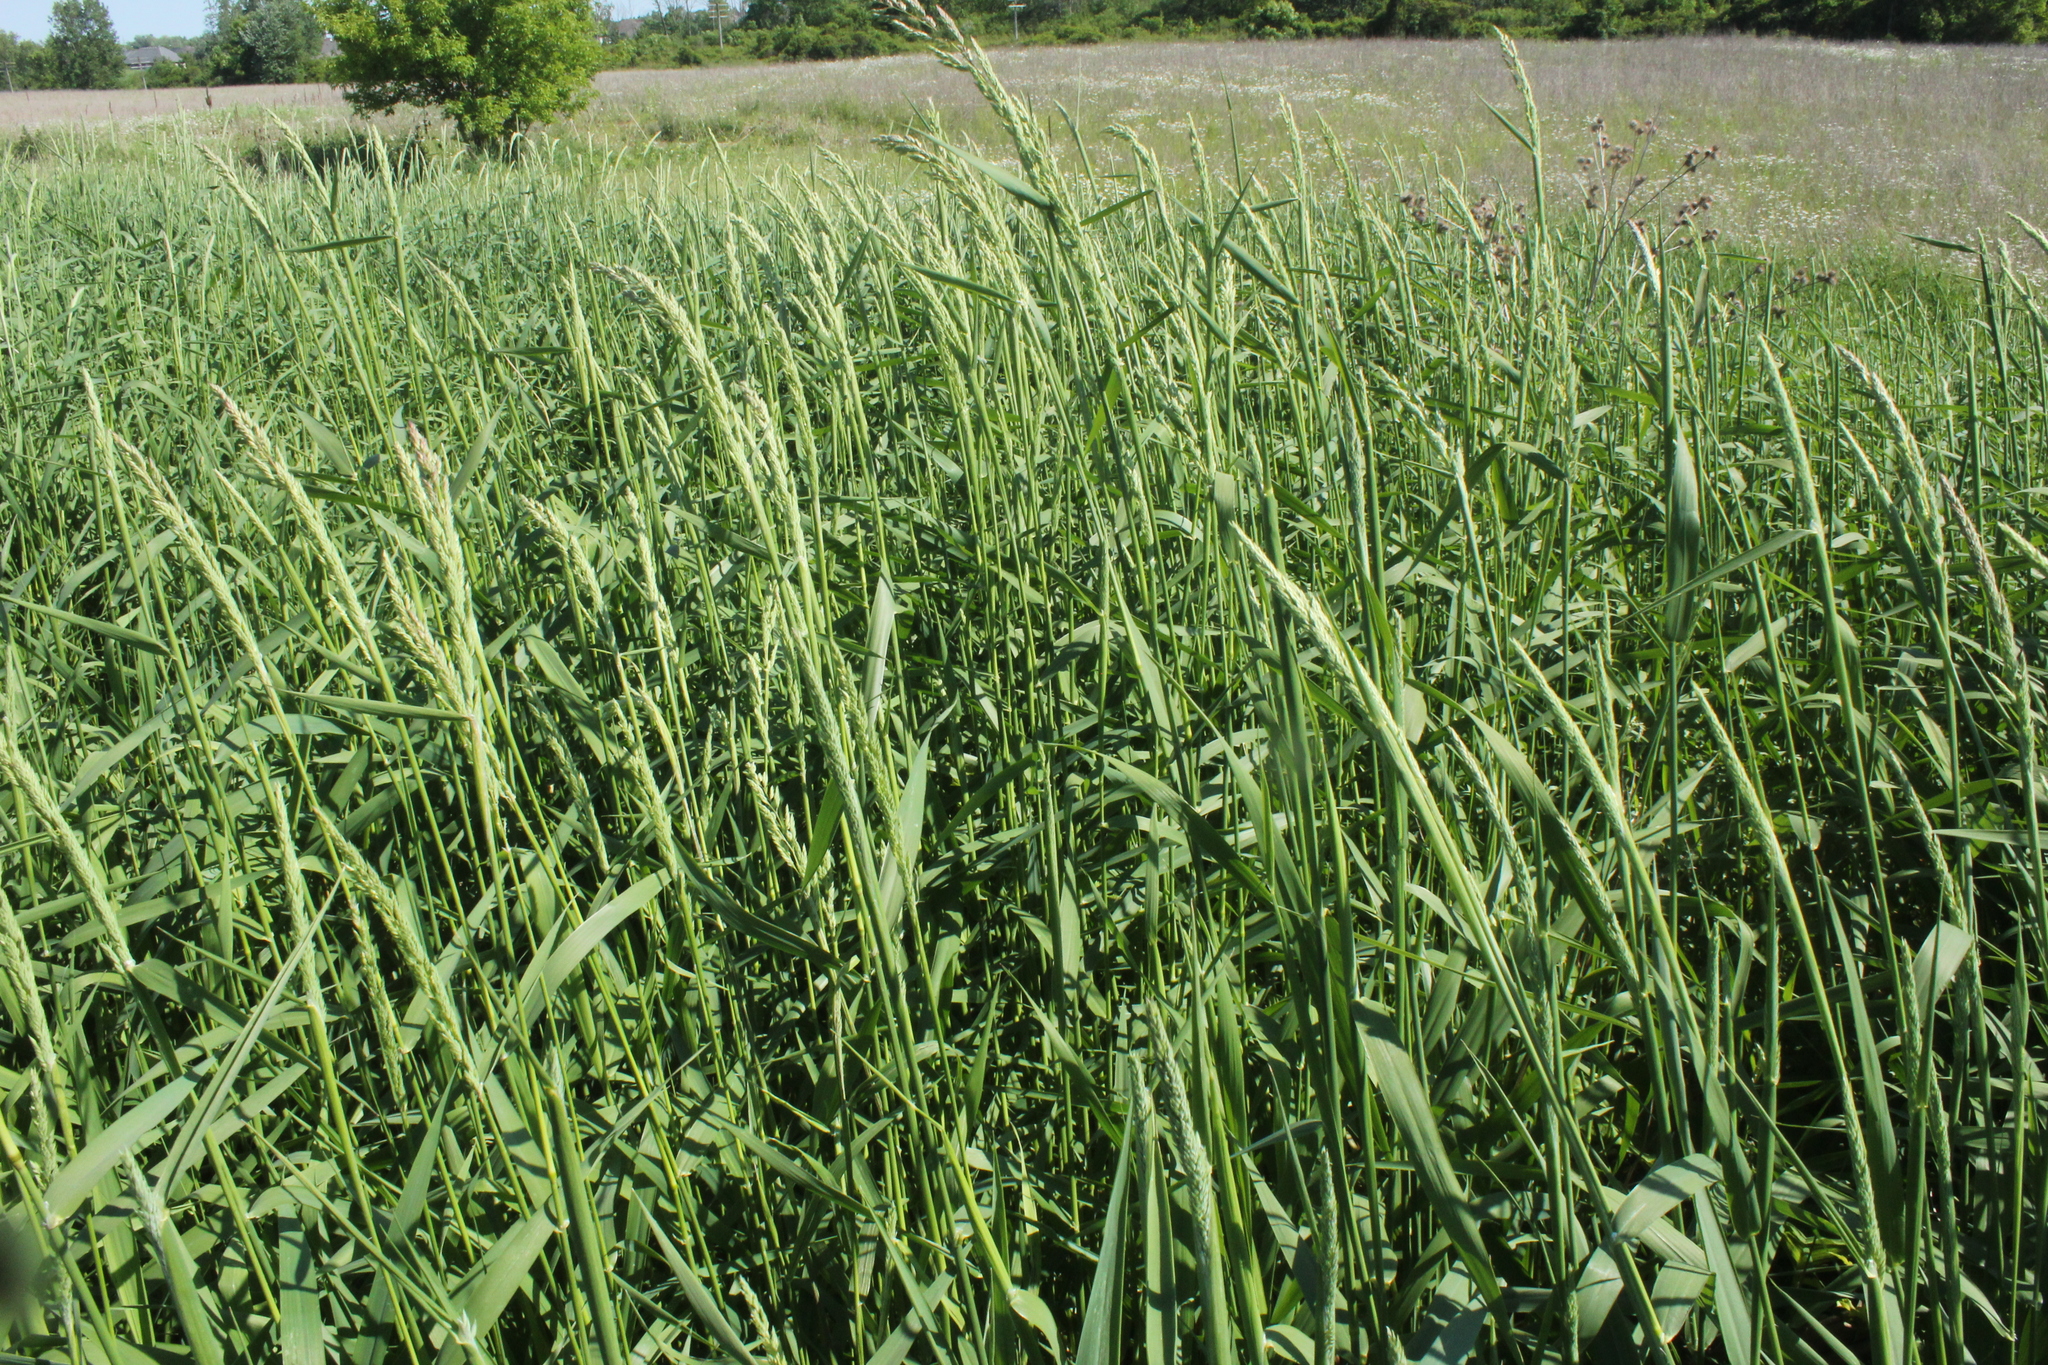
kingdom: Plantae
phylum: Tracheophyta
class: Liliopsida
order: Poales
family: Poaceae
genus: Phalaris
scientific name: Phalaris arundinacea
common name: Reed canary-grass
